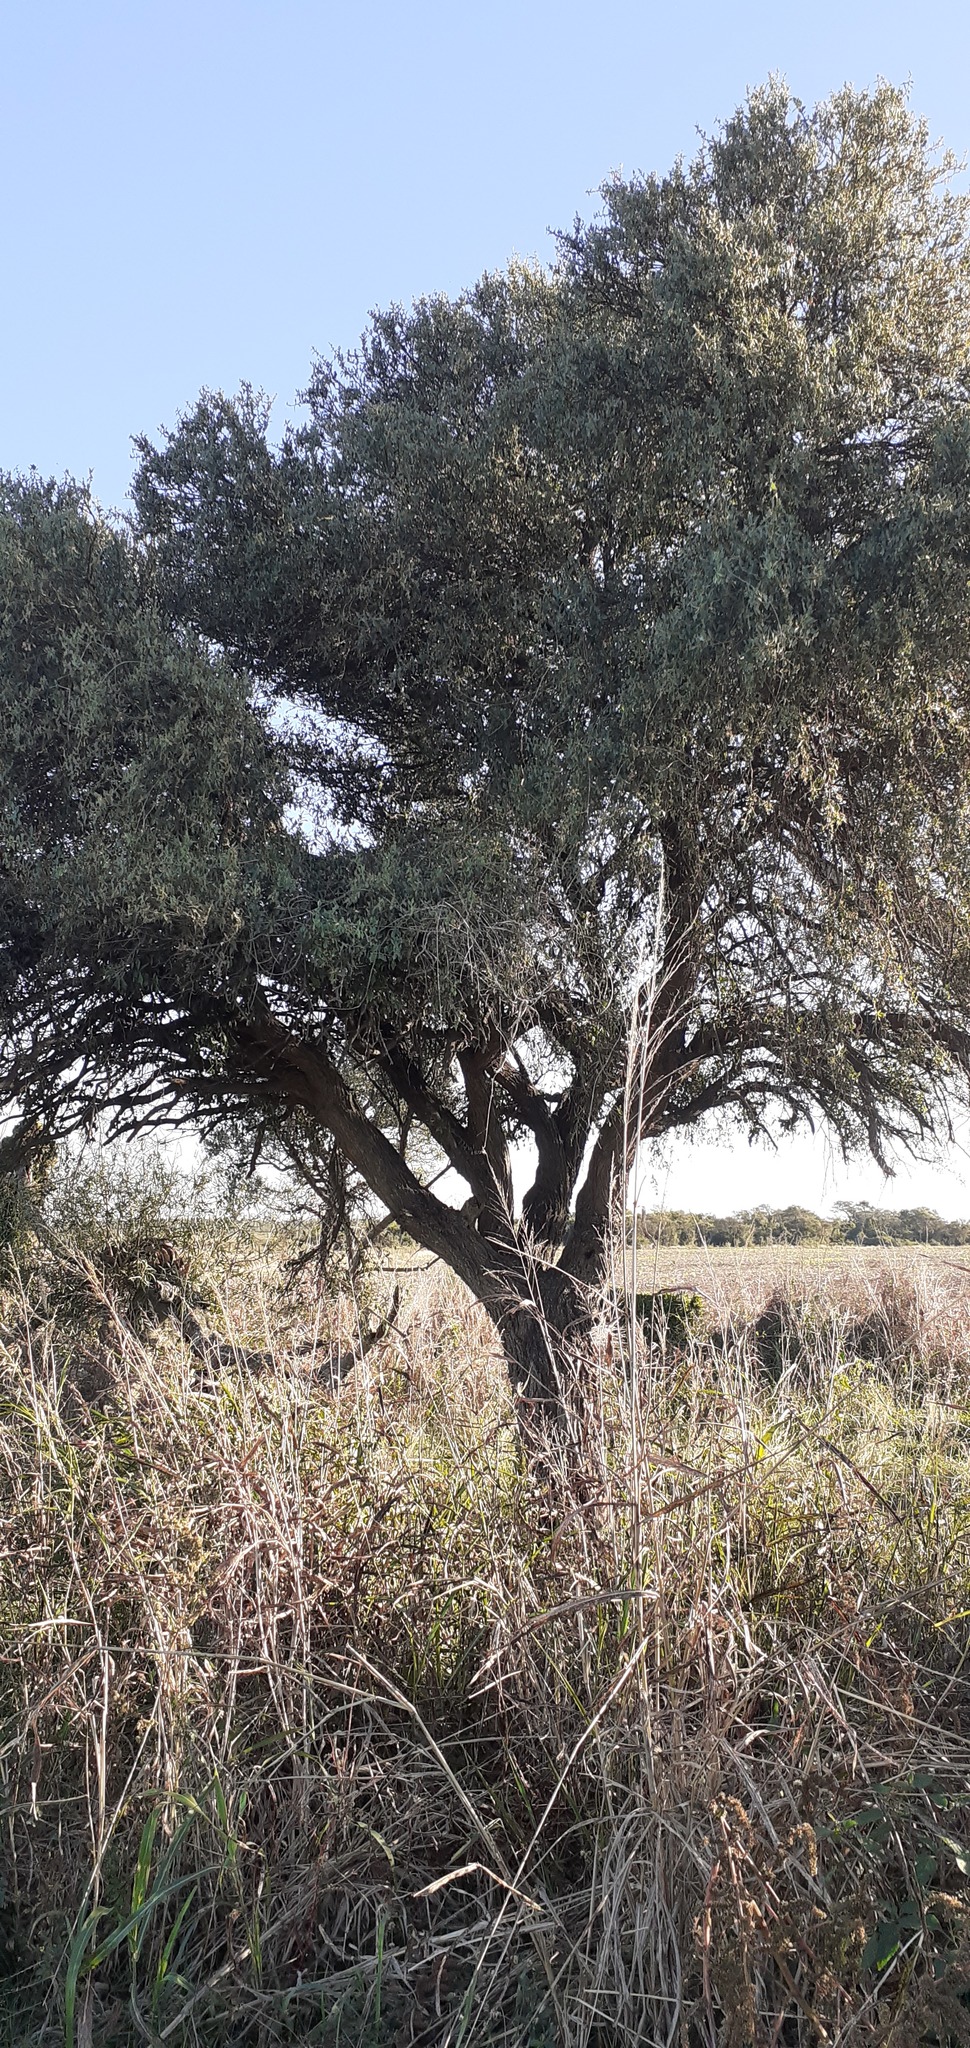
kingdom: Plantae
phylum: Tracheophyta
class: Magnoliopsida
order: Santalales
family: Cervantesiaceae
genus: Jodina
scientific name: Jodina rhombifolia
